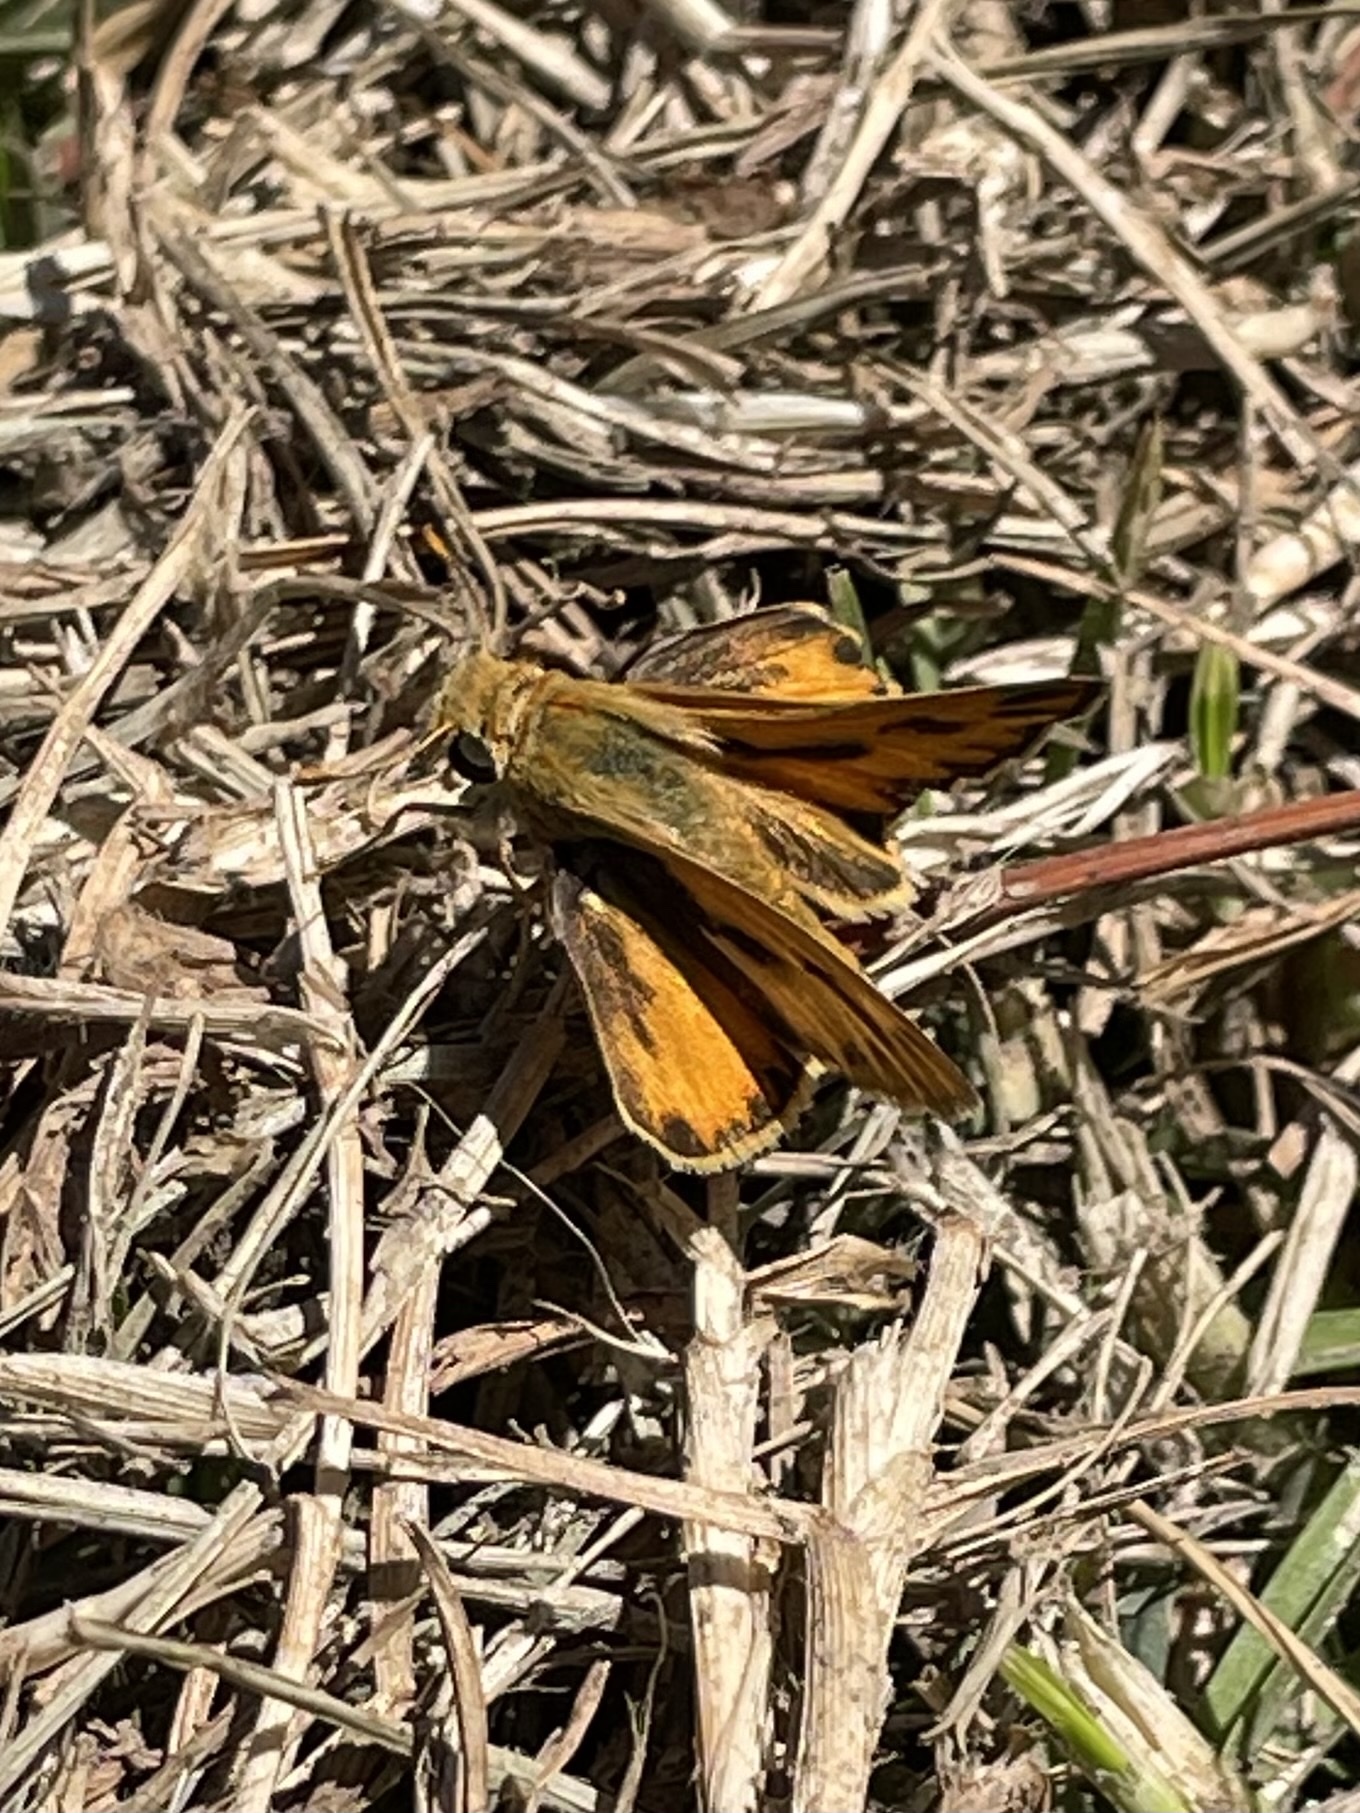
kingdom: Animalia
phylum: Arthropoda
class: Insecta
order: Lepidoptera
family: Hesperiidae
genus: Hylephila
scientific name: Hylephila phyleus
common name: Fiery skipper
